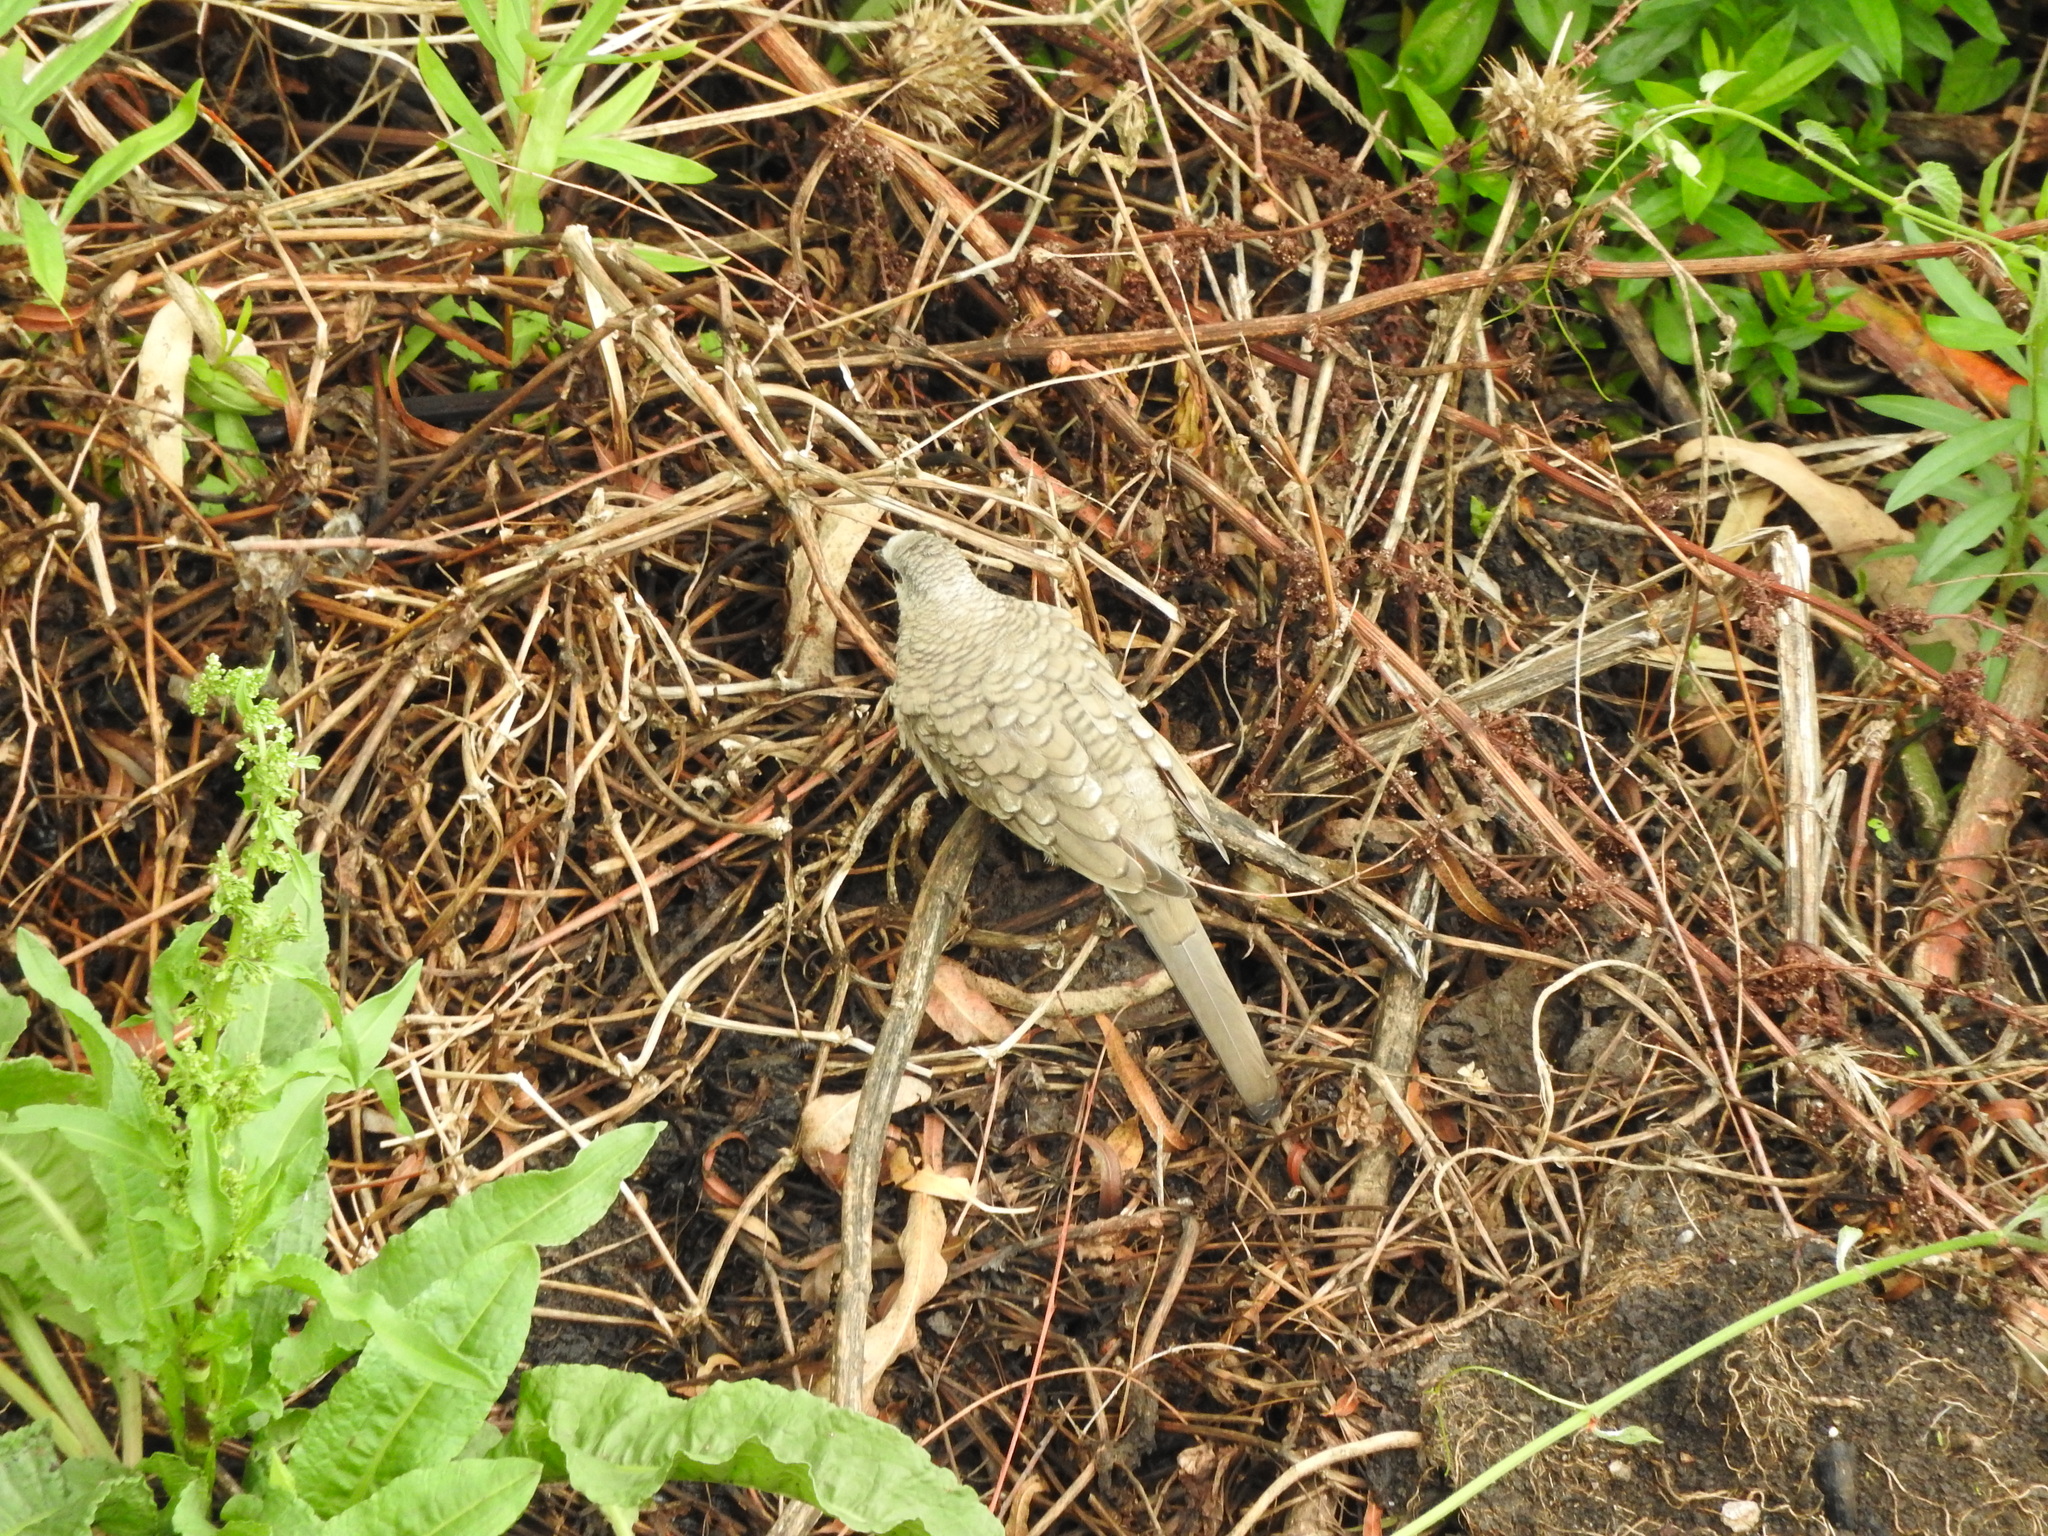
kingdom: Animalia
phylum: Chordata
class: Aves
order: Columbiformes
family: Columbidae
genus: Columbina
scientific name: Columbina inca
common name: Inca dove
